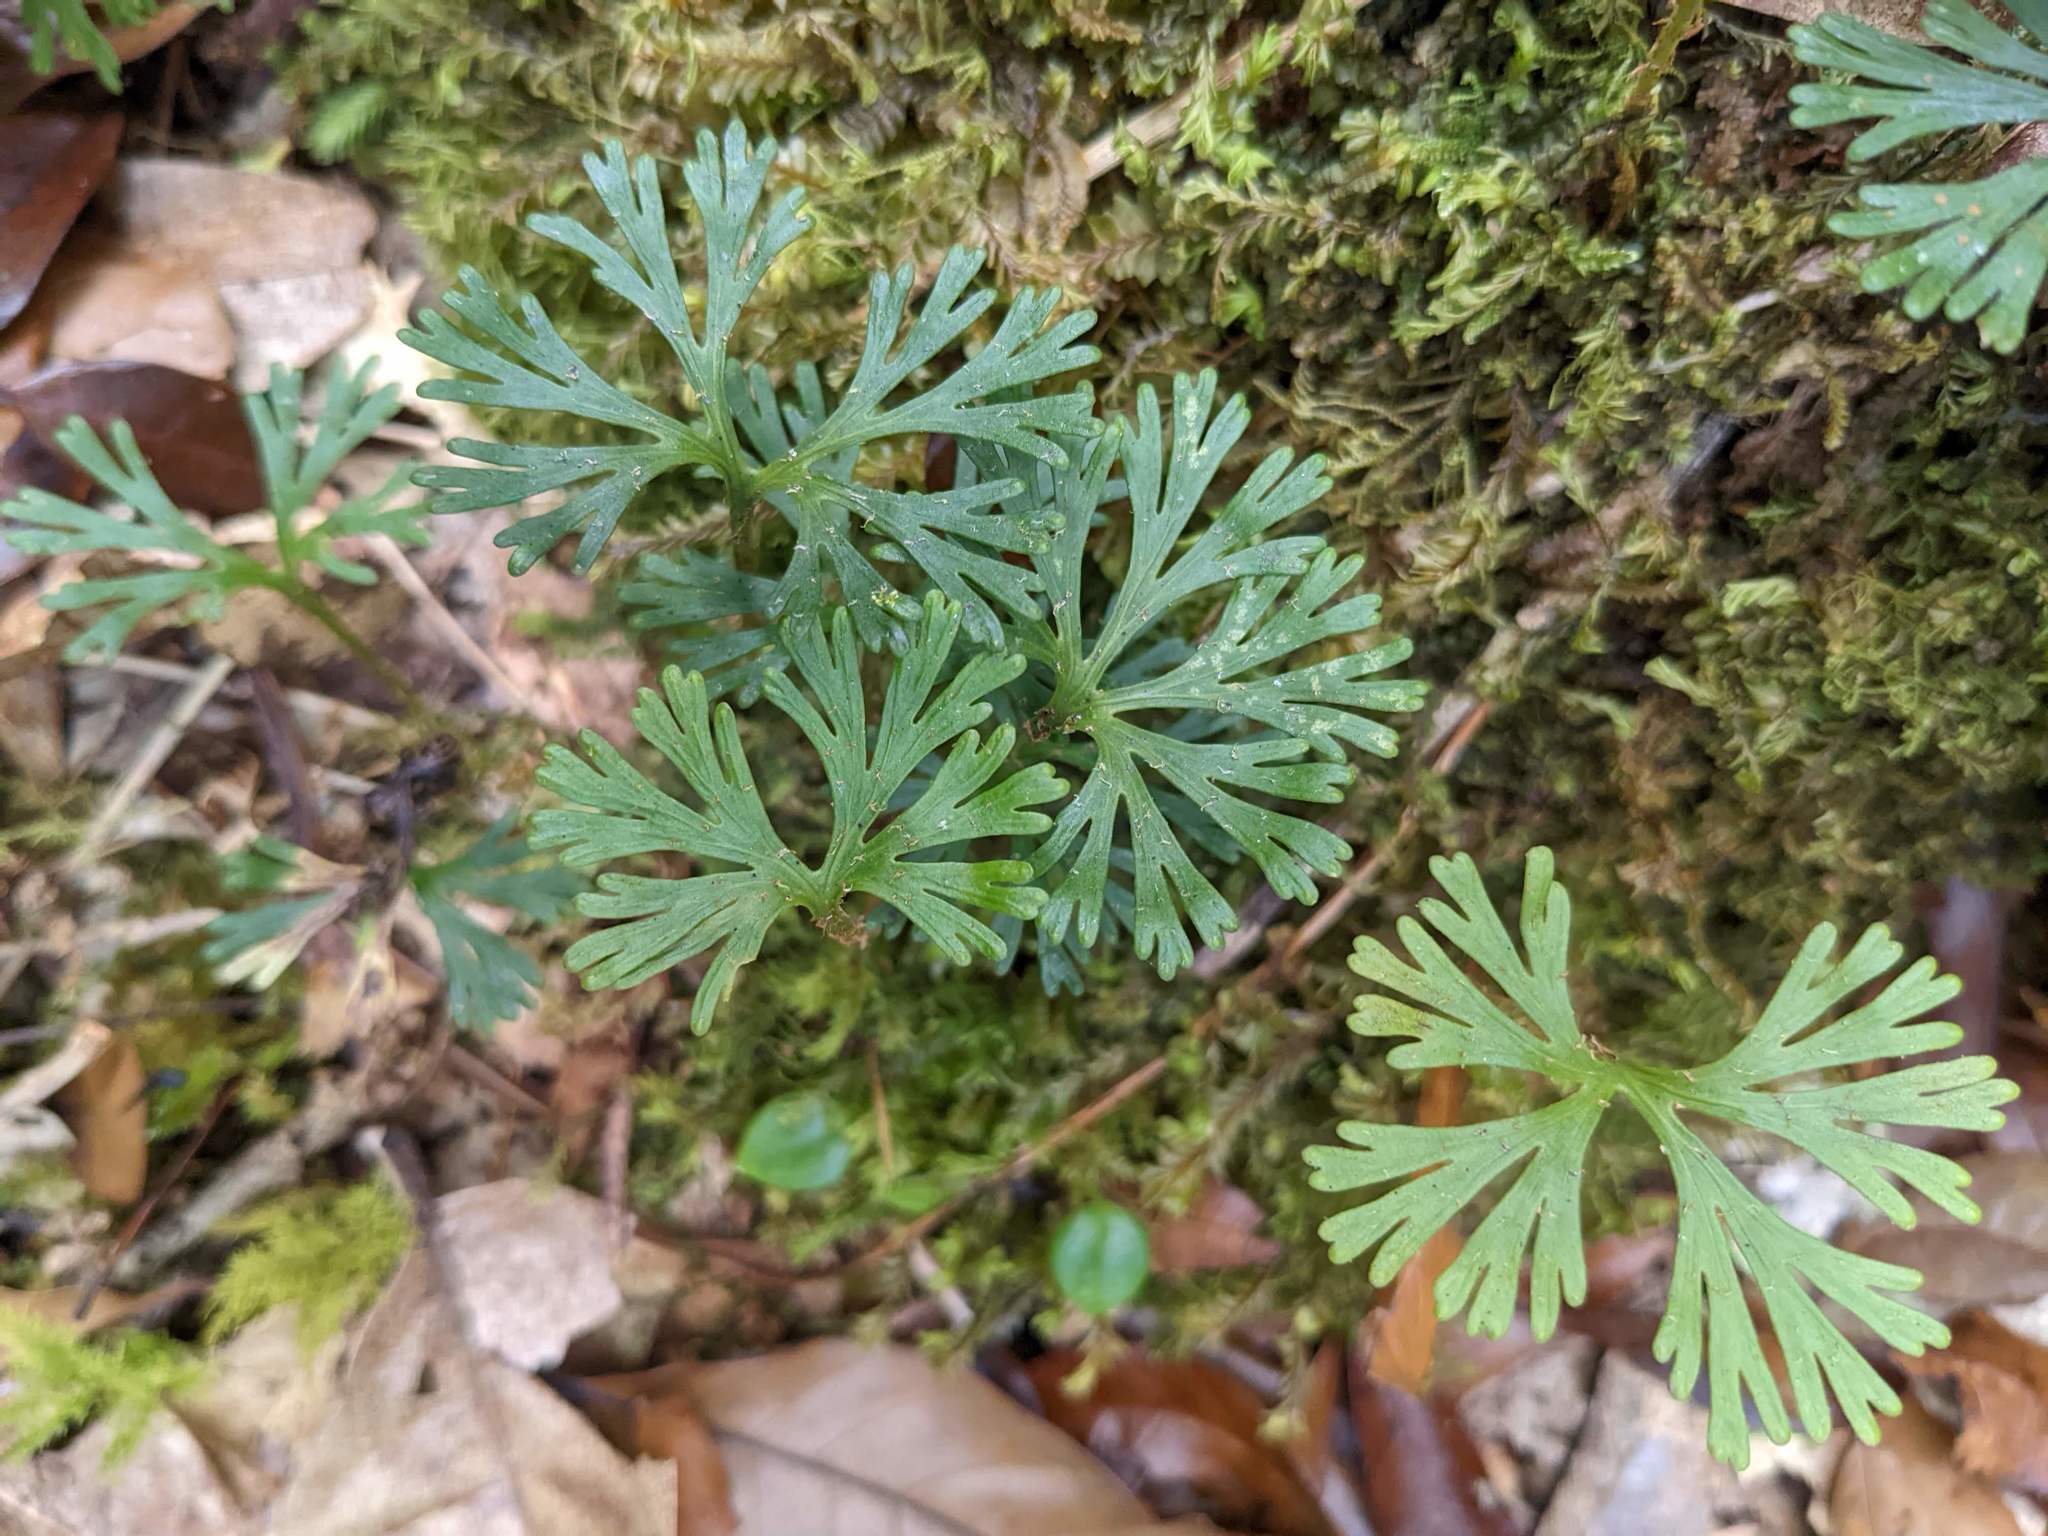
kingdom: Plantae
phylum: Tracheophyta
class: Polypodiopsida
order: Polypodiales
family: Dryopteridaceae
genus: Elaphoglossum
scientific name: Elaphoglossum peltatum
